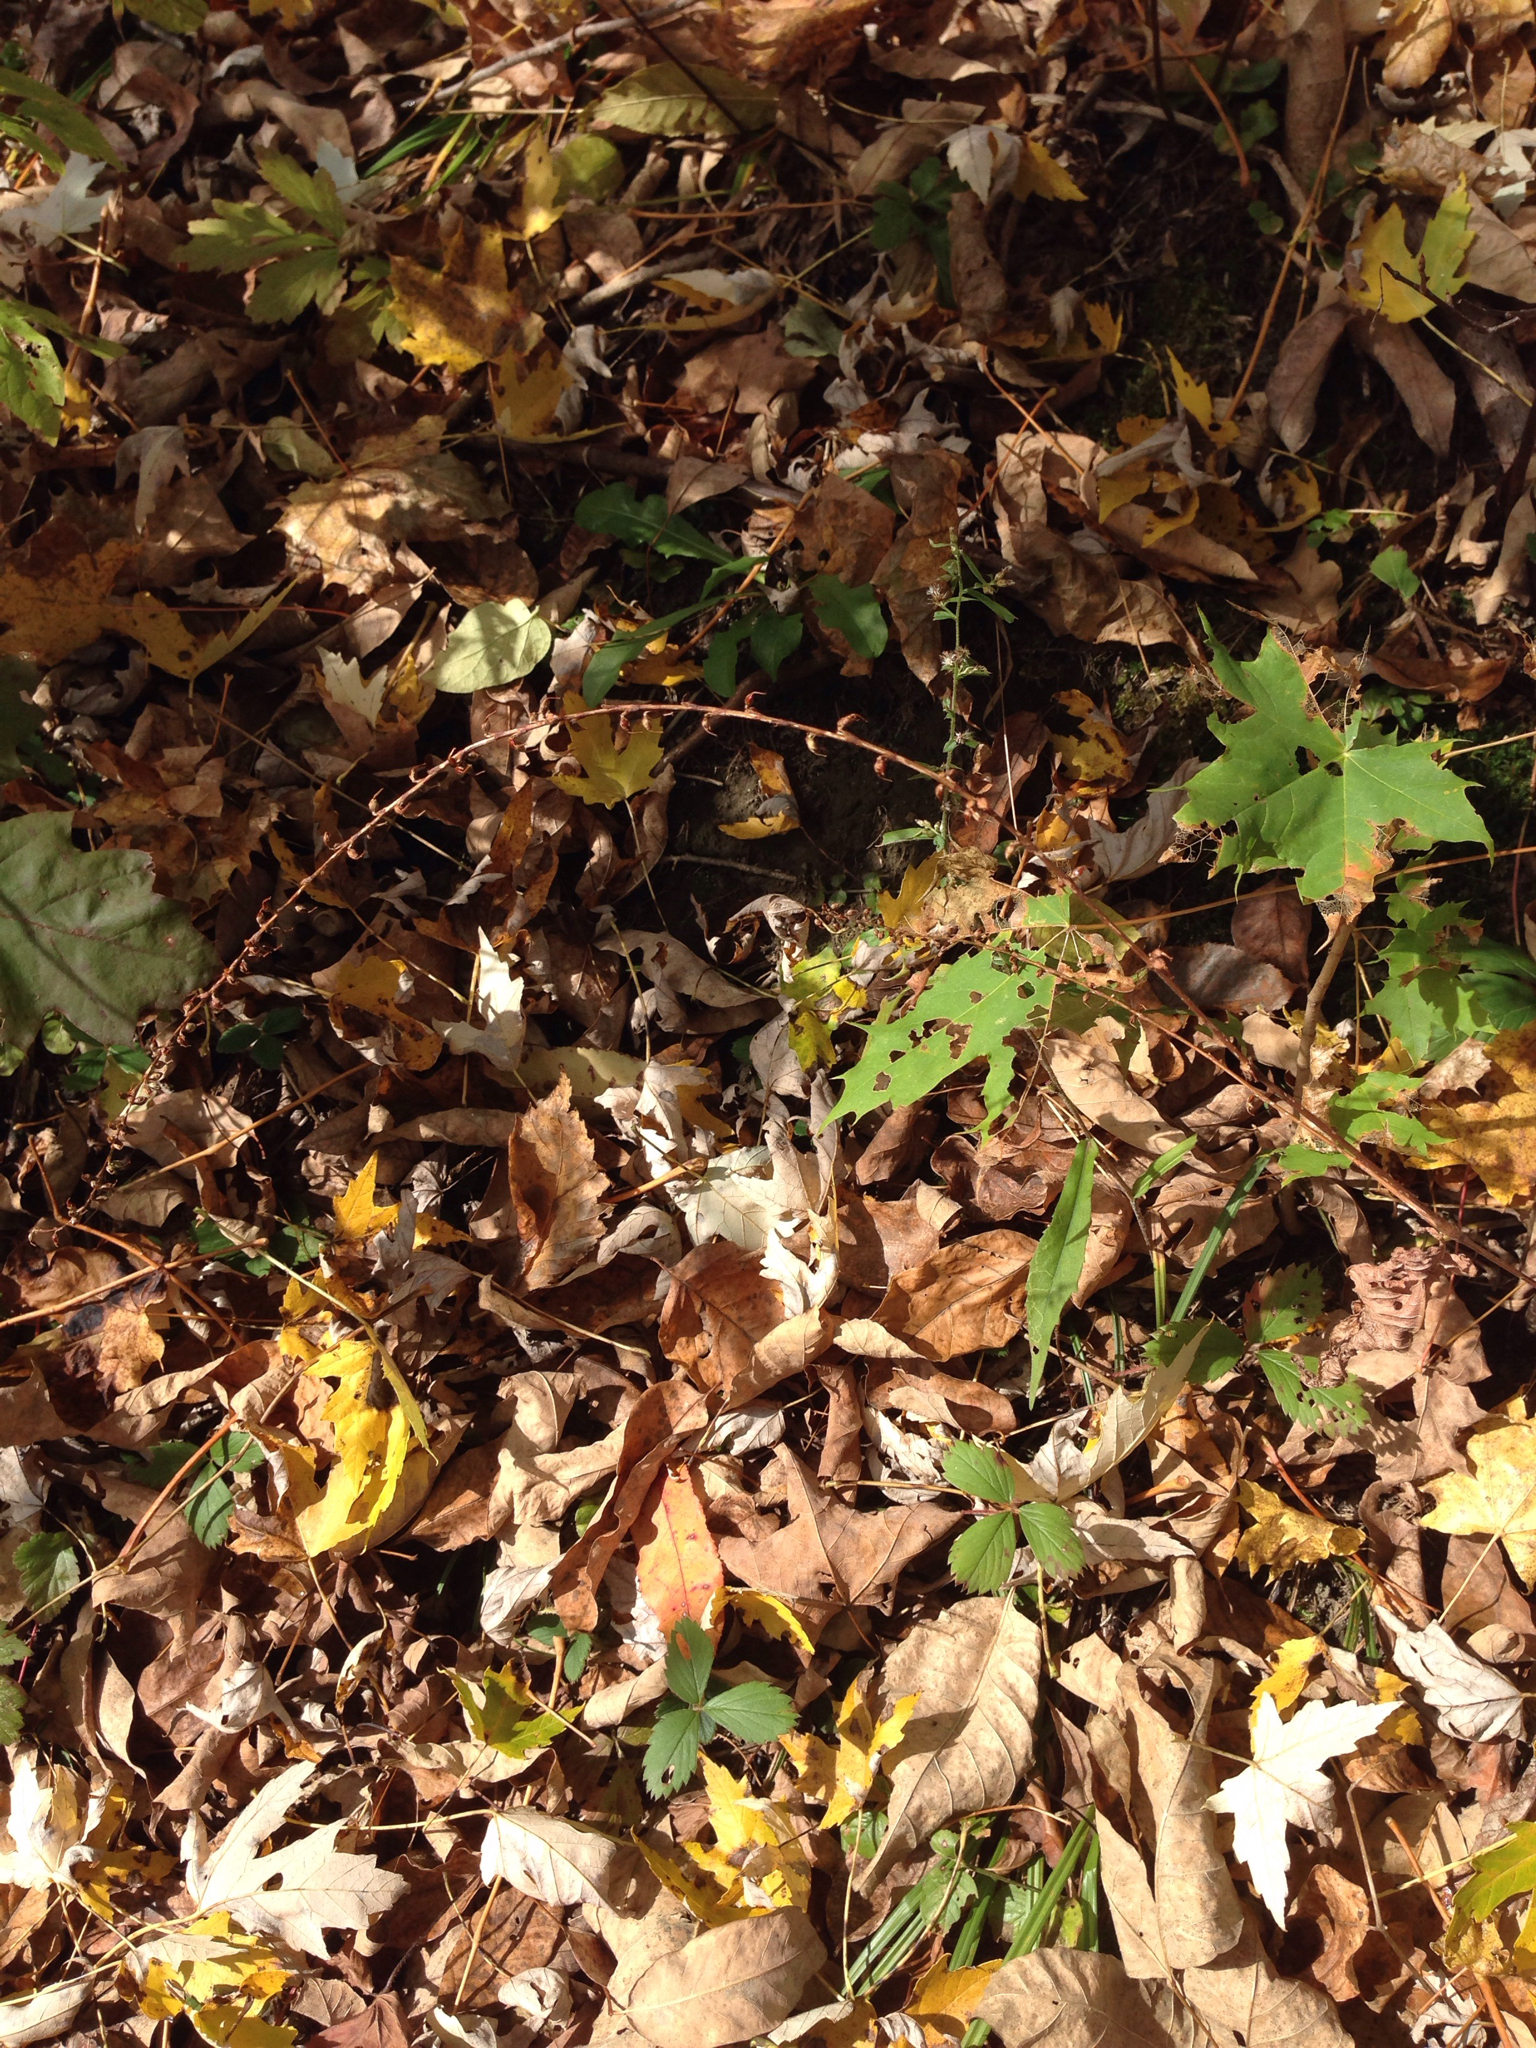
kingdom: Plantae
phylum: Tracheophyta
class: Magnoliopsida
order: Caryophyllales
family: Polygonaceae
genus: Persicaria
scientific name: Persicaria virginiana
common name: Jumpseed
